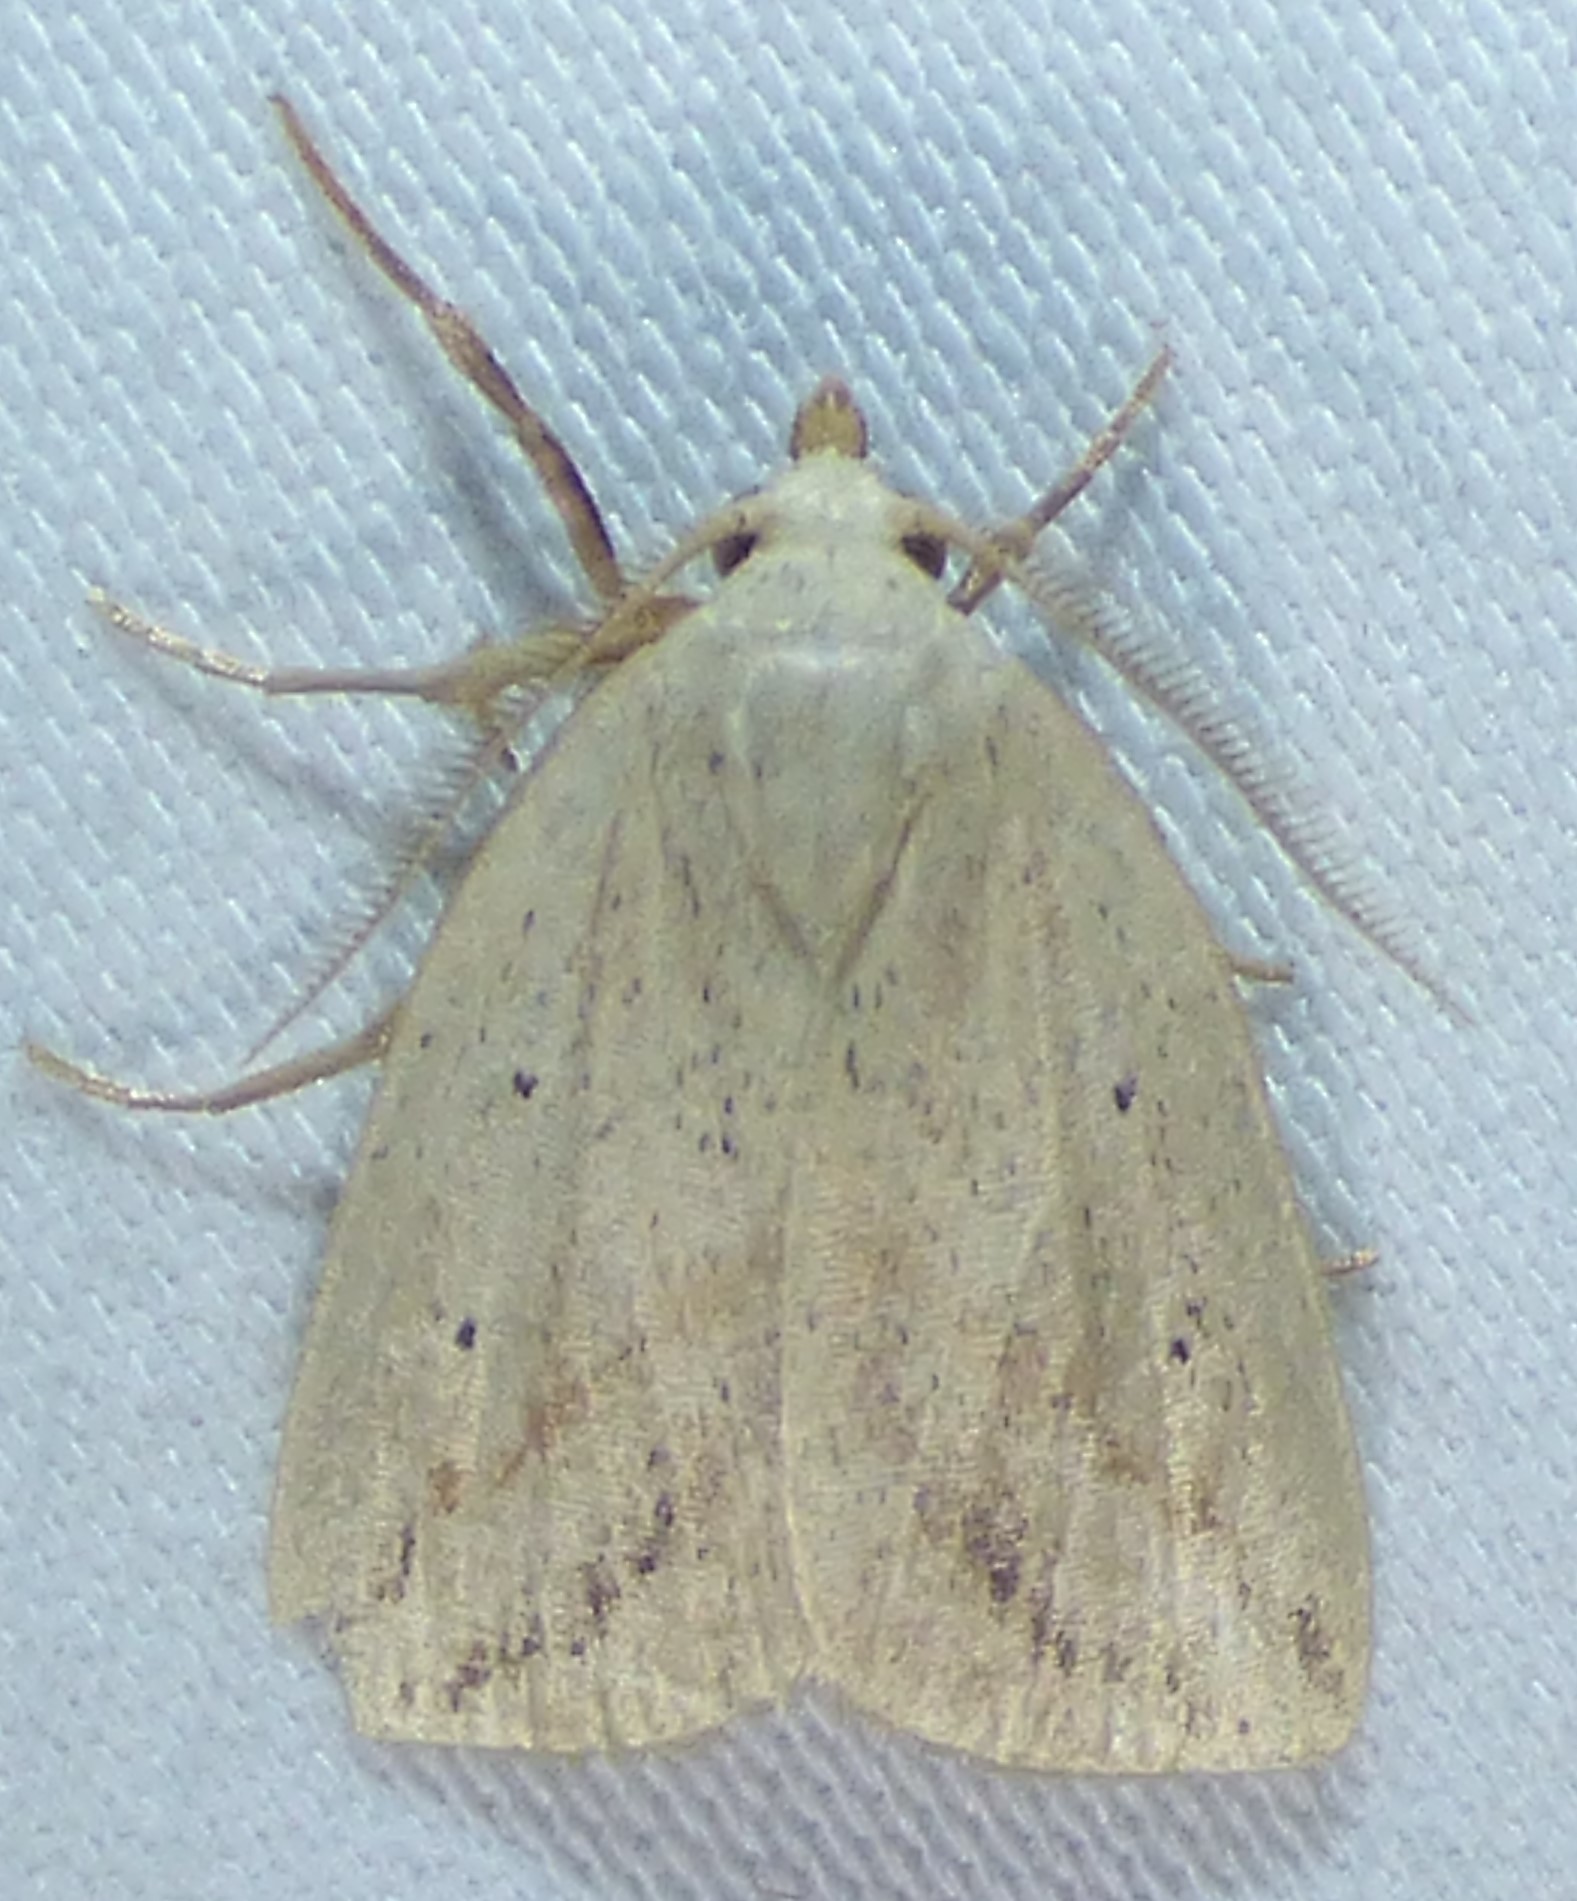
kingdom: Animalia
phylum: Arthropoda
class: Insecta
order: Lepidoptera
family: Noctuidae
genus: Amolita
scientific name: Amolita obliqua
